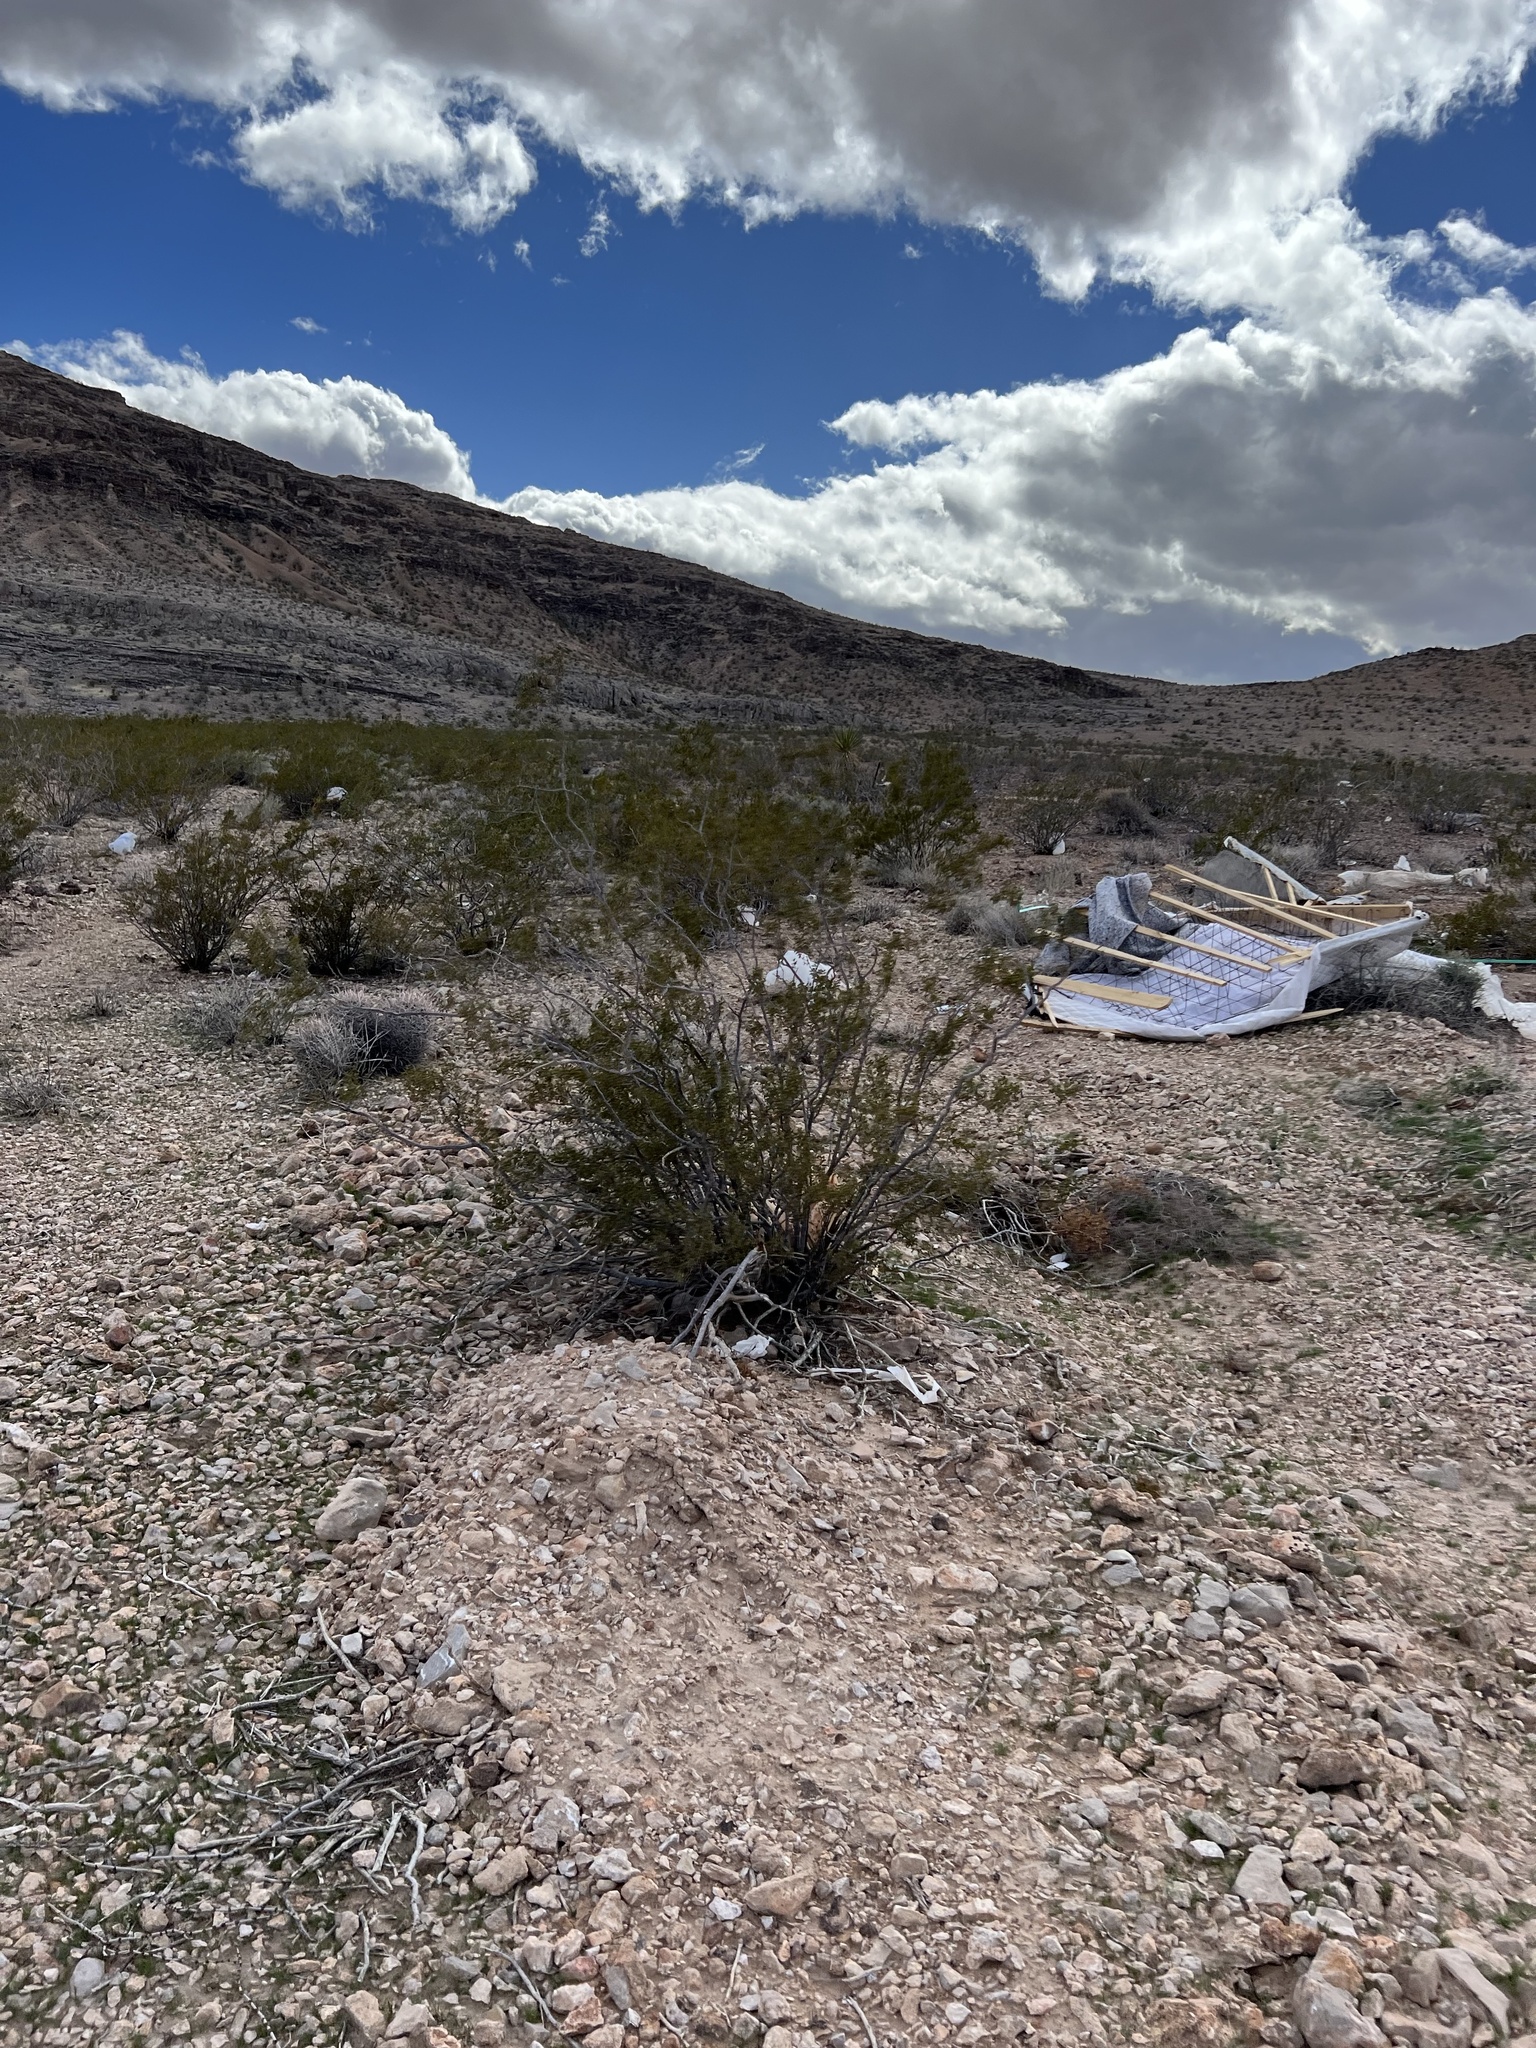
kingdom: Plantae
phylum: Tracheophyta
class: Magnoliopsida
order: Zygophyllales
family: Zygophyllaceae
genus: Larrea
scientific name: Larrea tridentata
